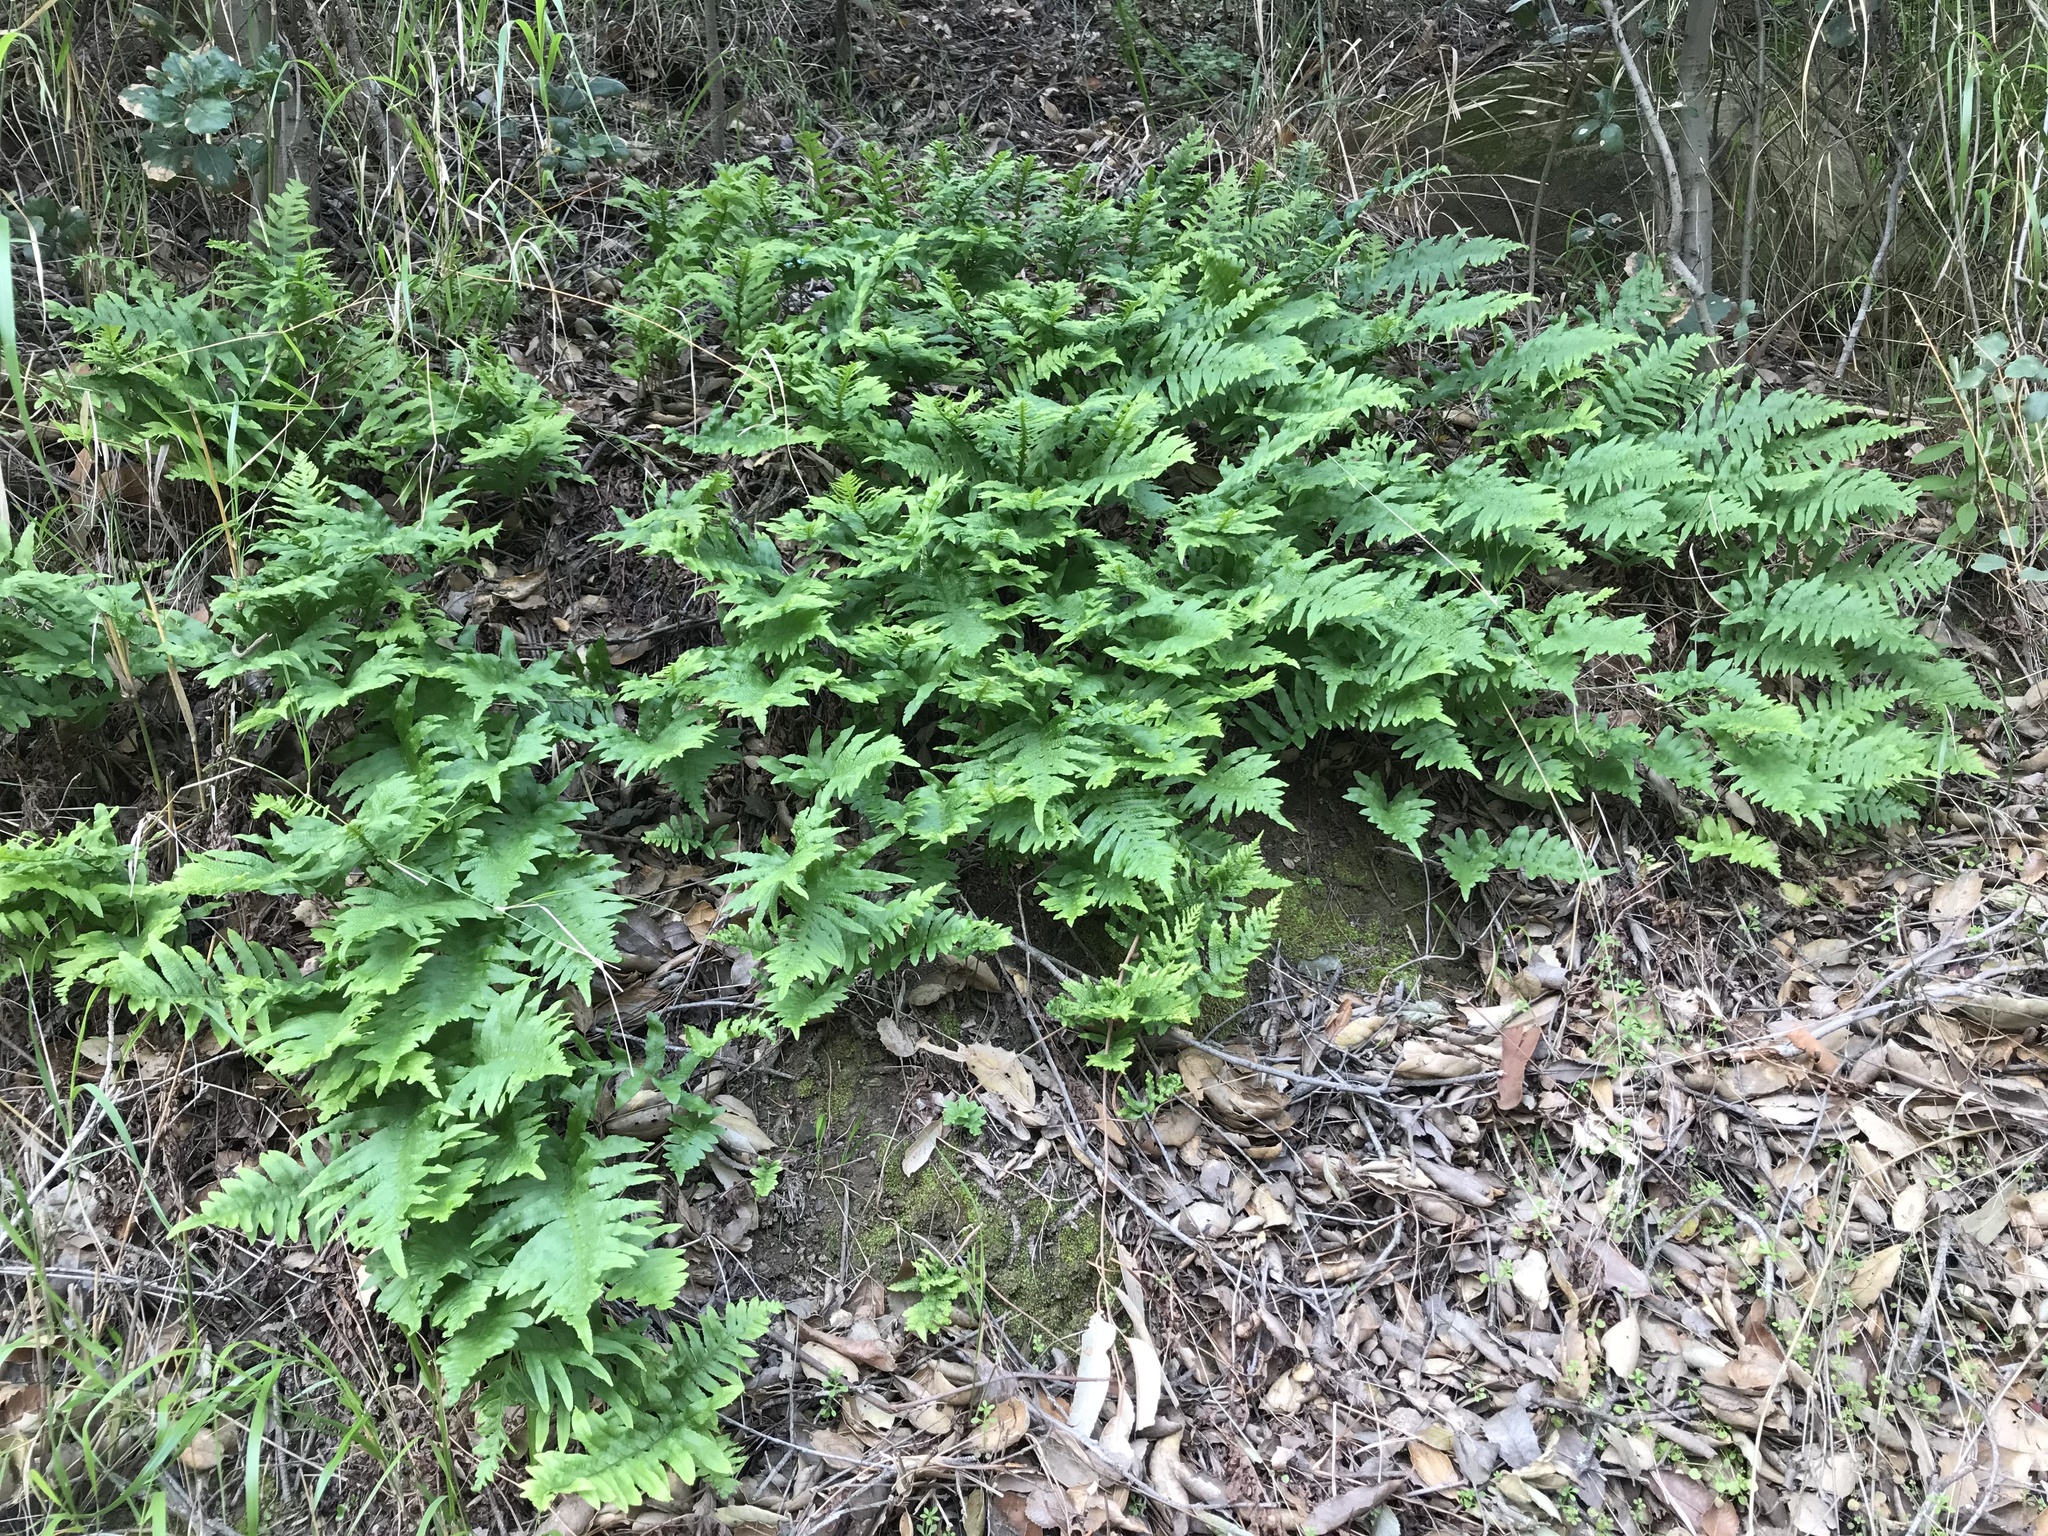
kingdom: Plantae
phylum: Tracheophyta
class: Polypodiopsida
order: Polypodiales
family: Polypodiaceae
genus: Polypodium
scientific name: Polypodium californicum
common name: California polypody
